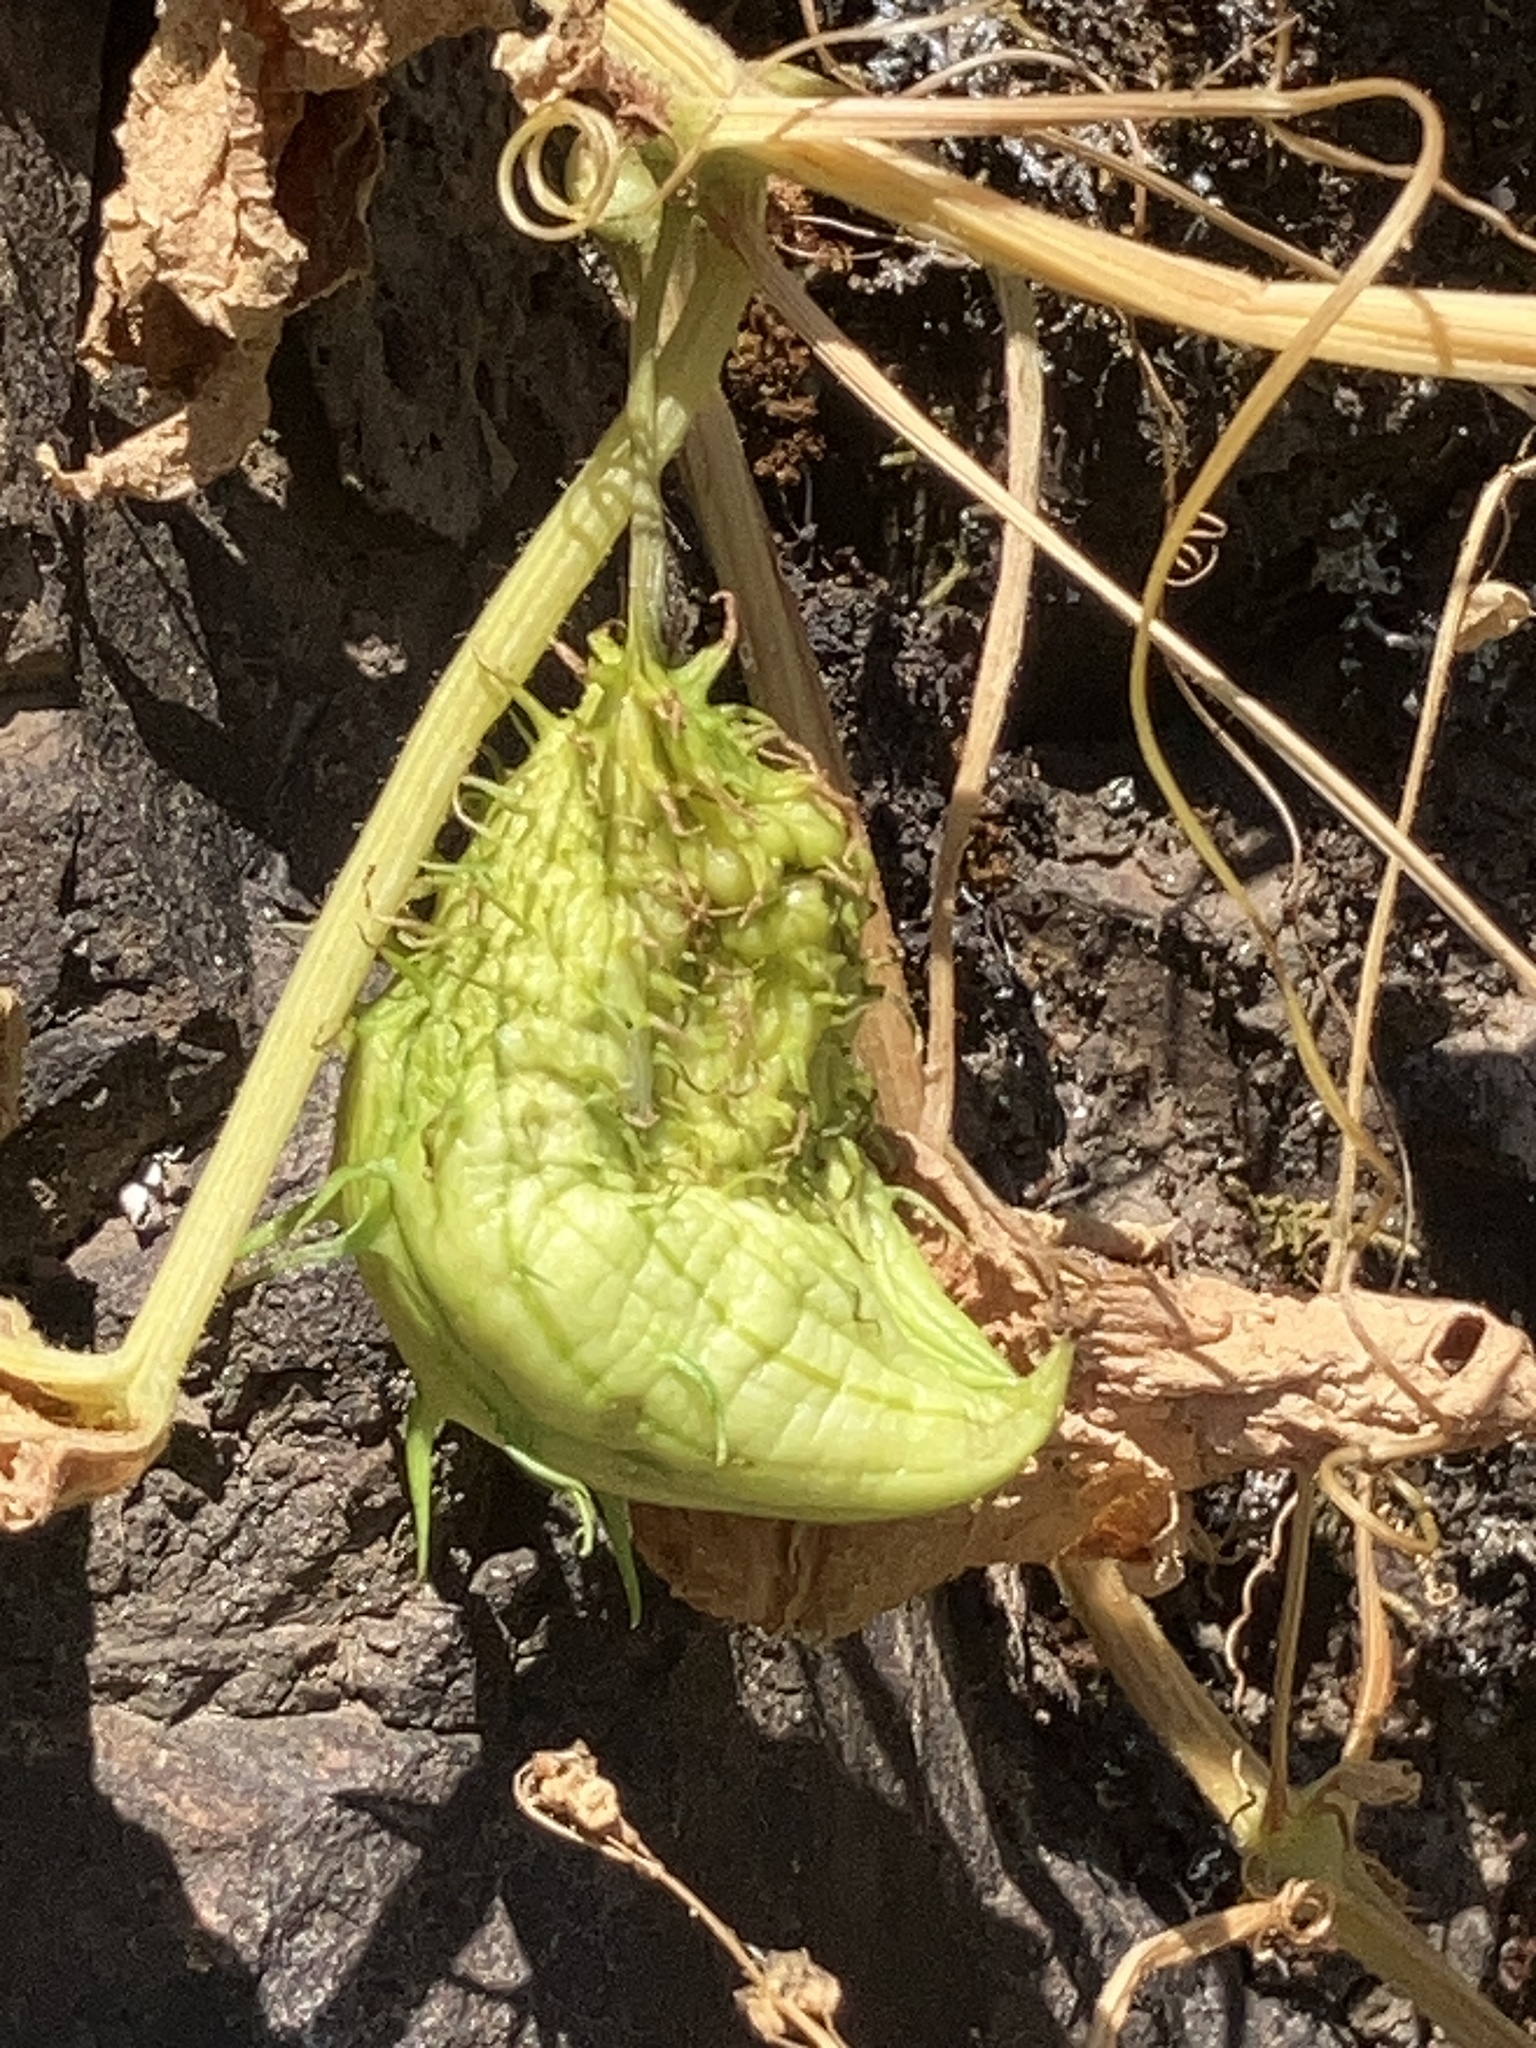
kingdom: Plantae
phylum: Tracheophyta
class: Magnoliopsida
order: Cucurbitales
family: Cucurbitaceae
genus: Marah
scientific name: Marah oregana
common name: Coastal manroot
